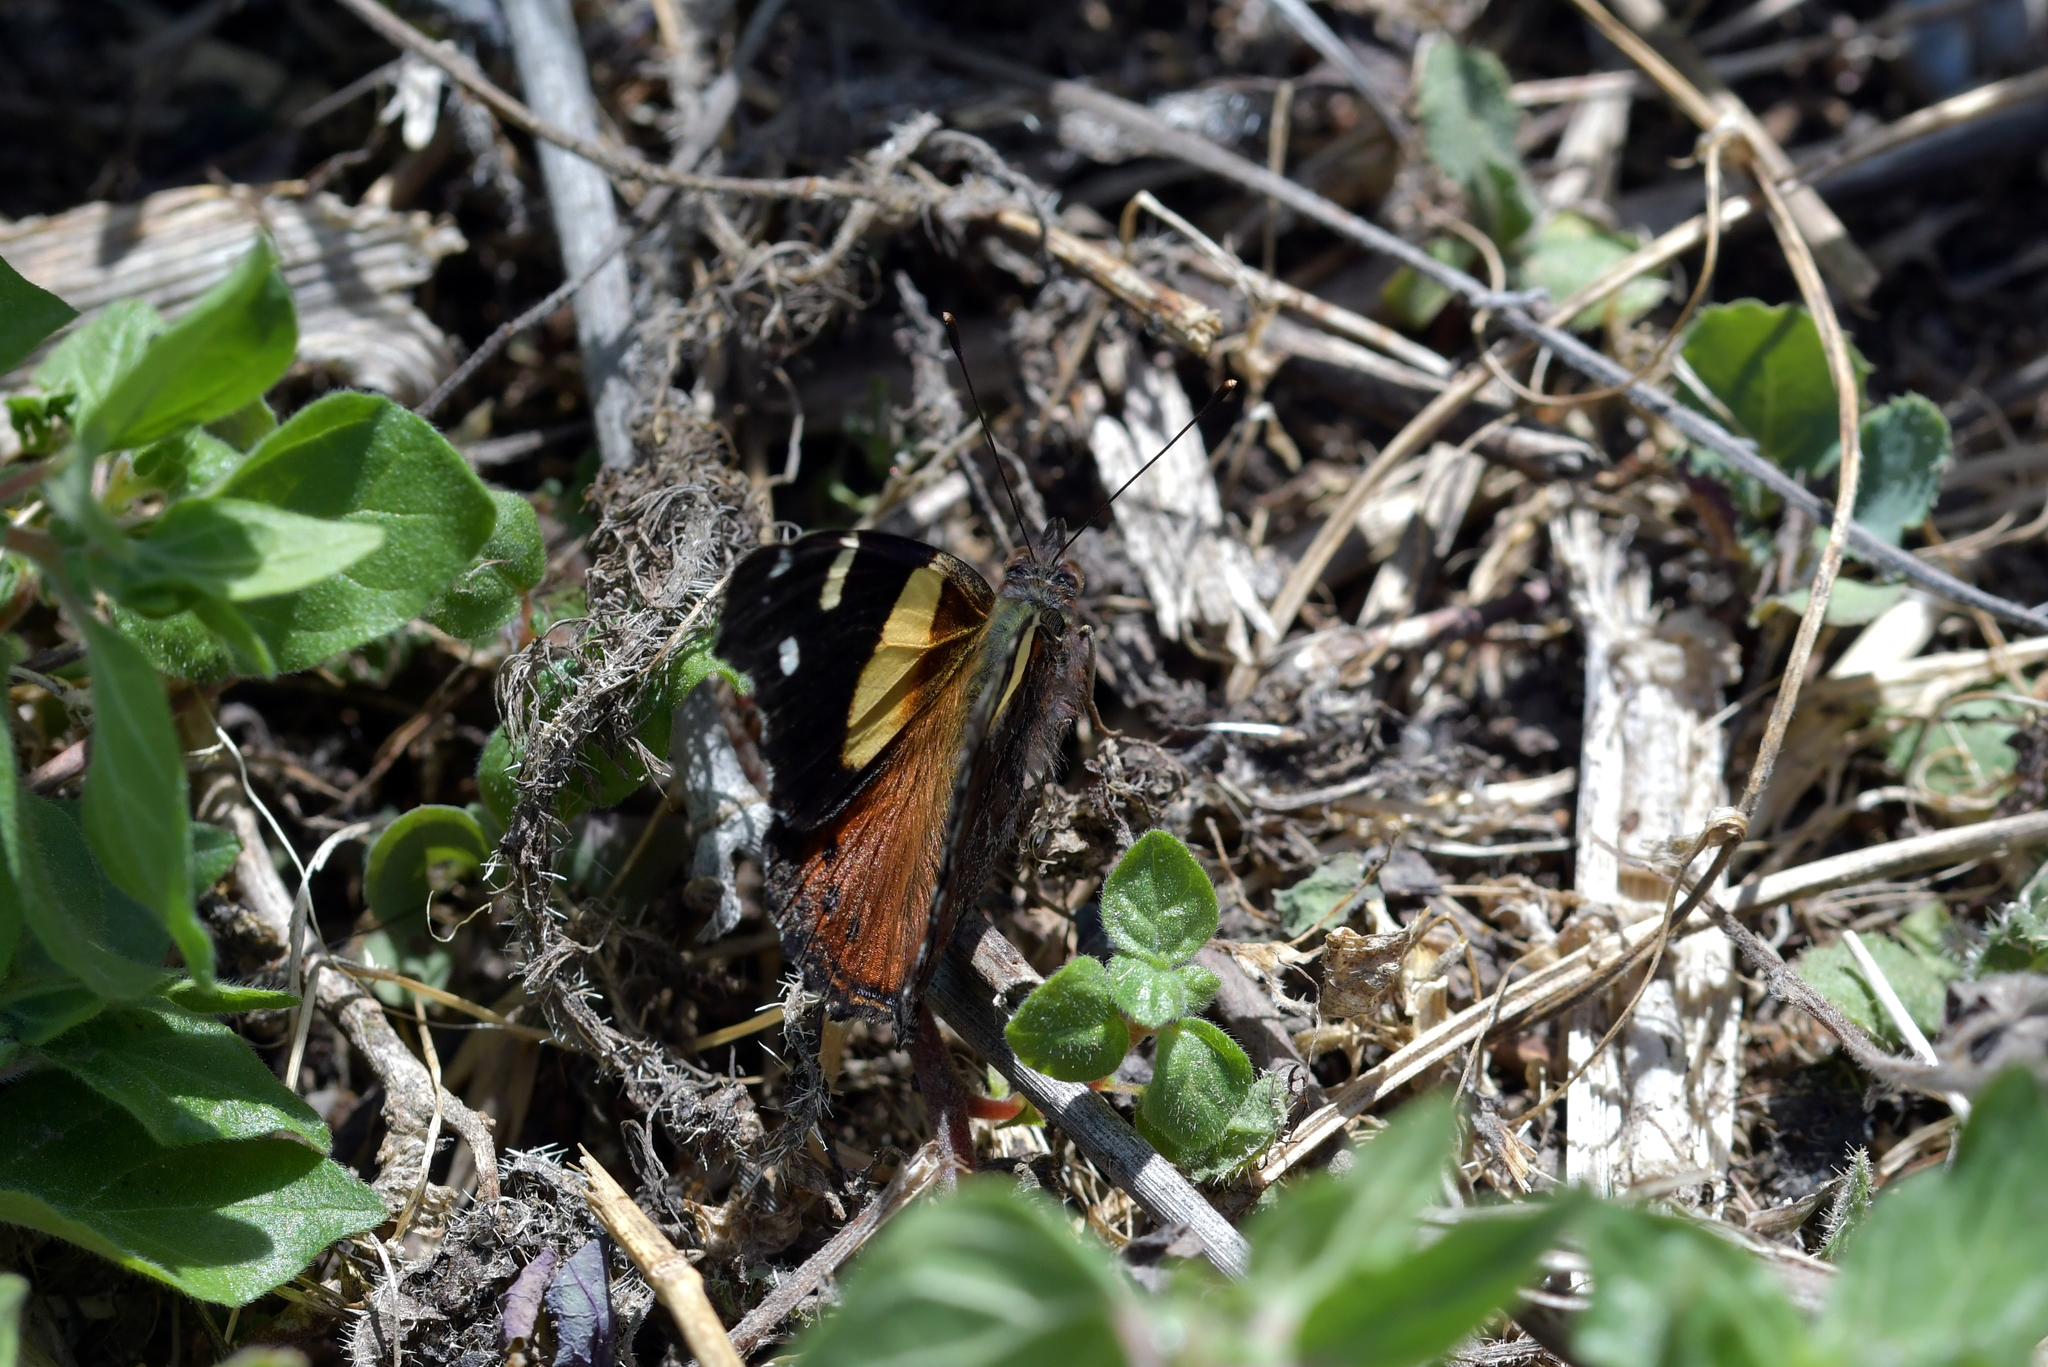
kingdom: Animalia
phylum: Arthropoda
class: Insecta
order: Lepidoptera
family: Nymphalidae
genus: Vanessa
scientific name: Vanessa itea
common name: Yellow admiral
